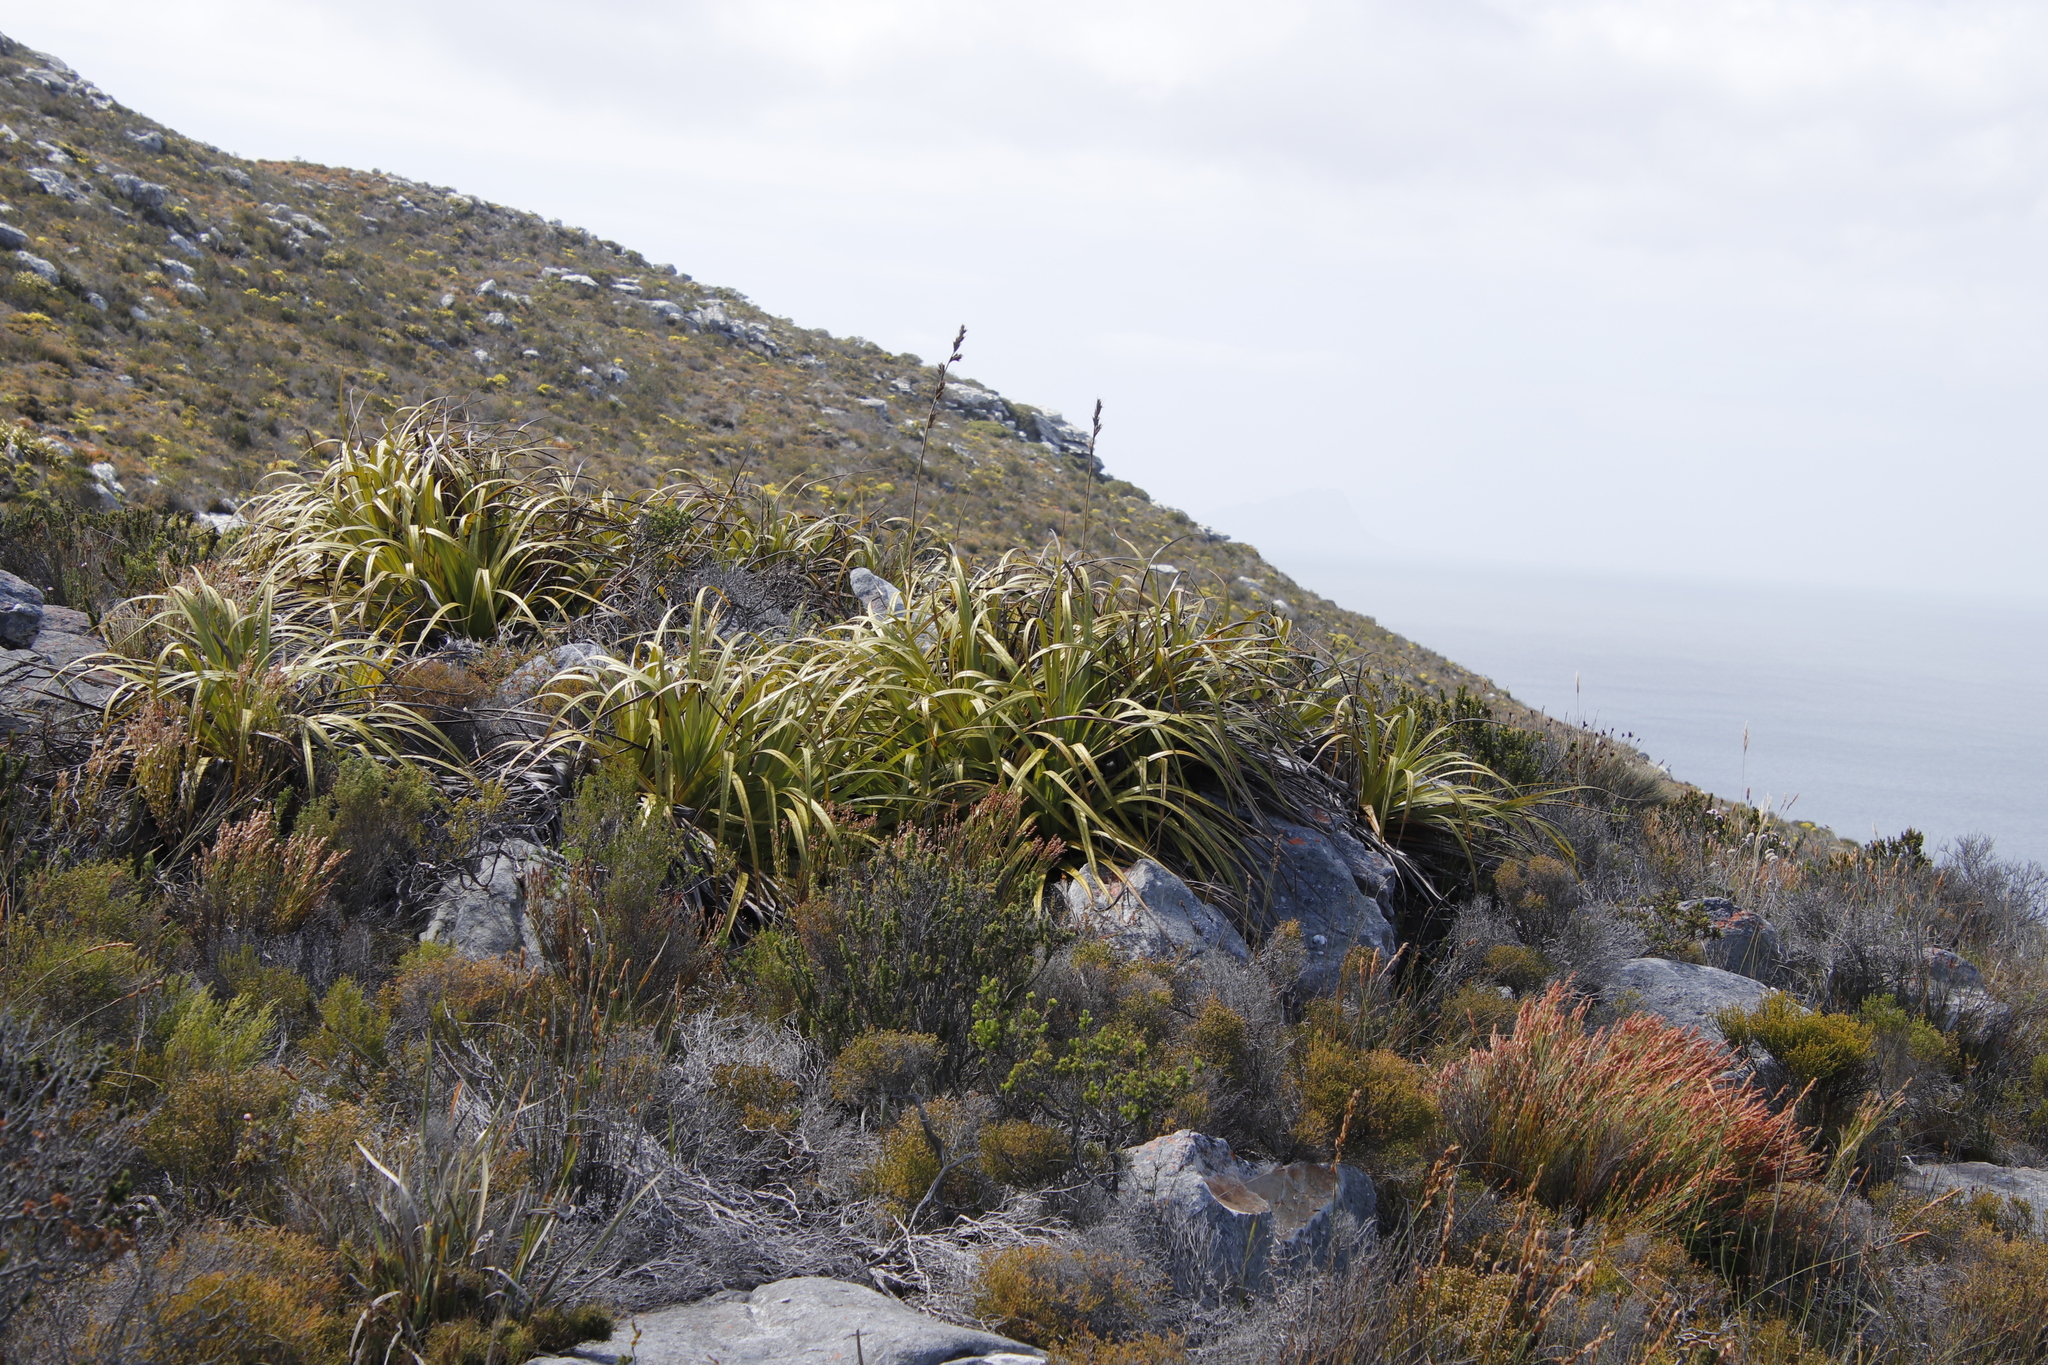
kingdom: Plantae
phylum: Tracheophyta
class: Liliopsida
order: Poales
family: Cyperaceae
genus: Tetraria
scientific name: Tetraria thermalis
